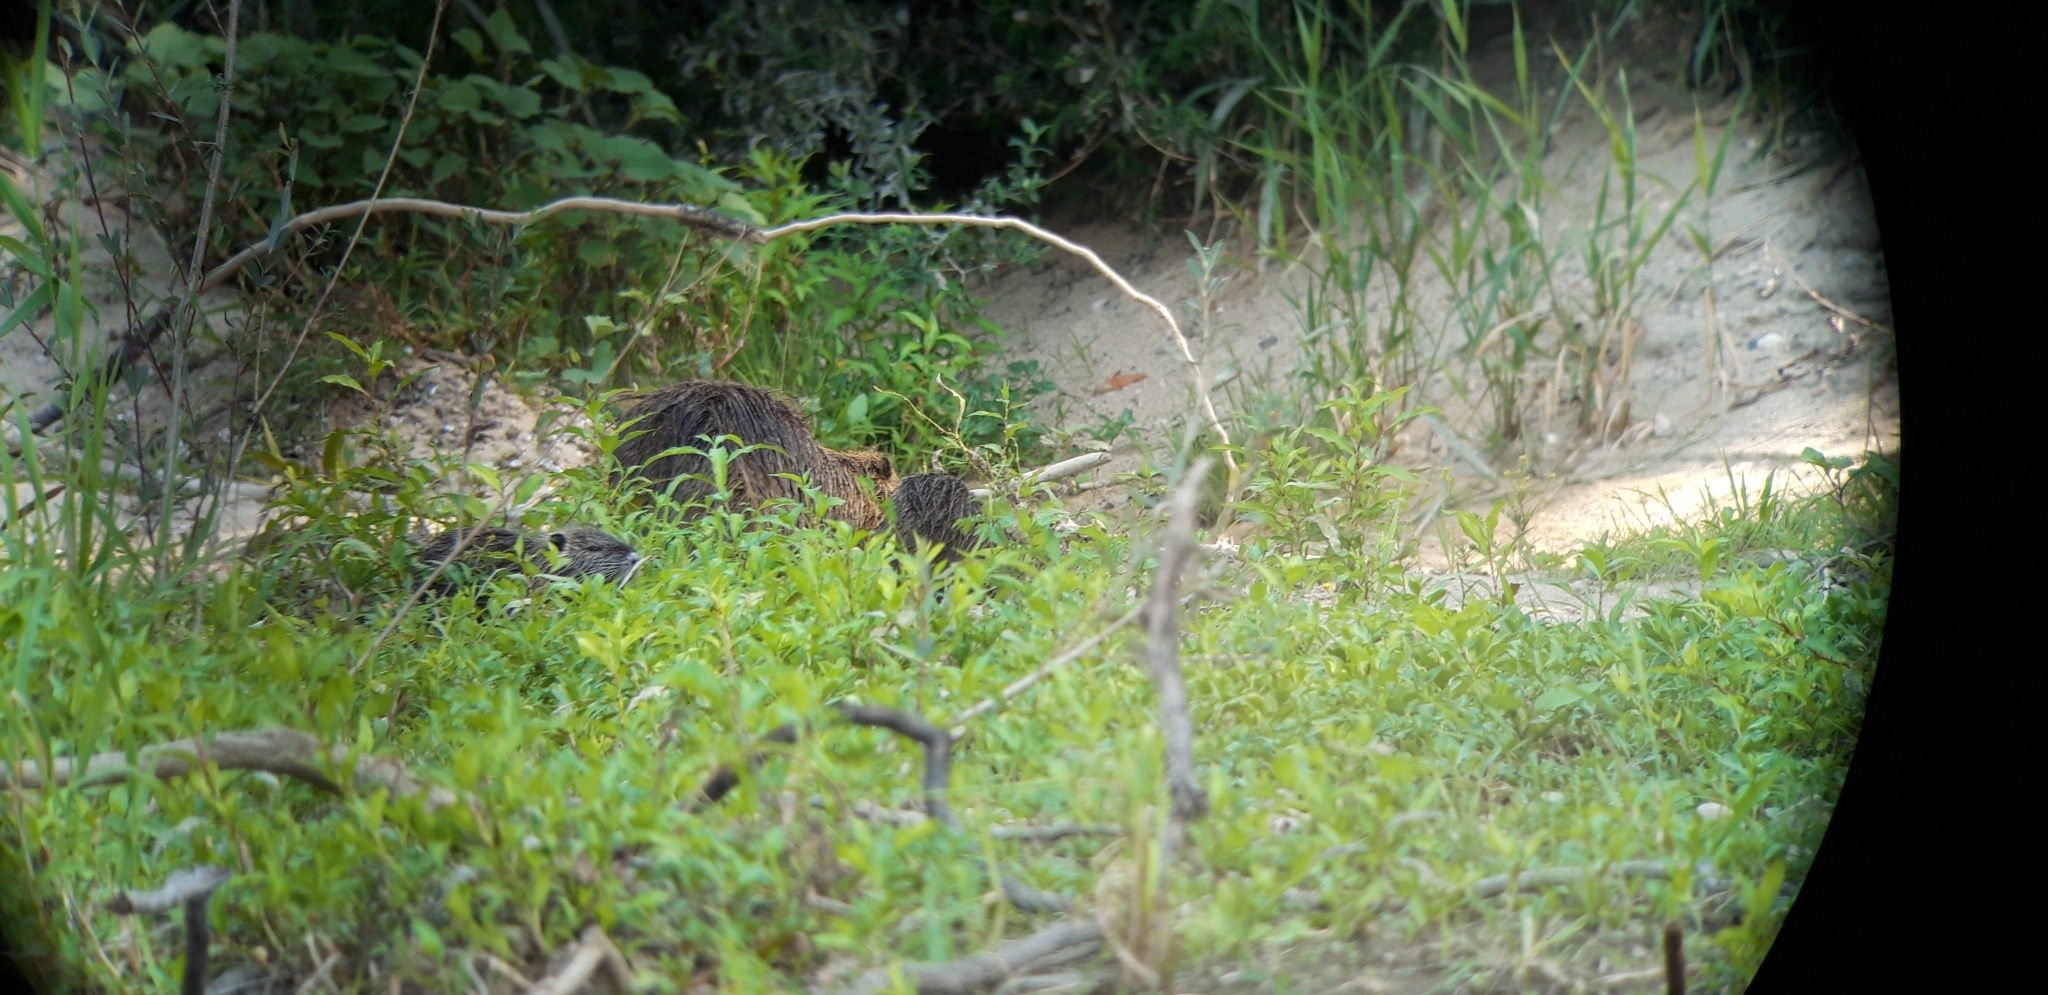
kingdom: Animalia
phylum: Chordata
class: Mammalia
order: Rodentia
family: Myocastoridae
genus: Myocastor
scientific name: Myocastor coypus
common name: Coypu
